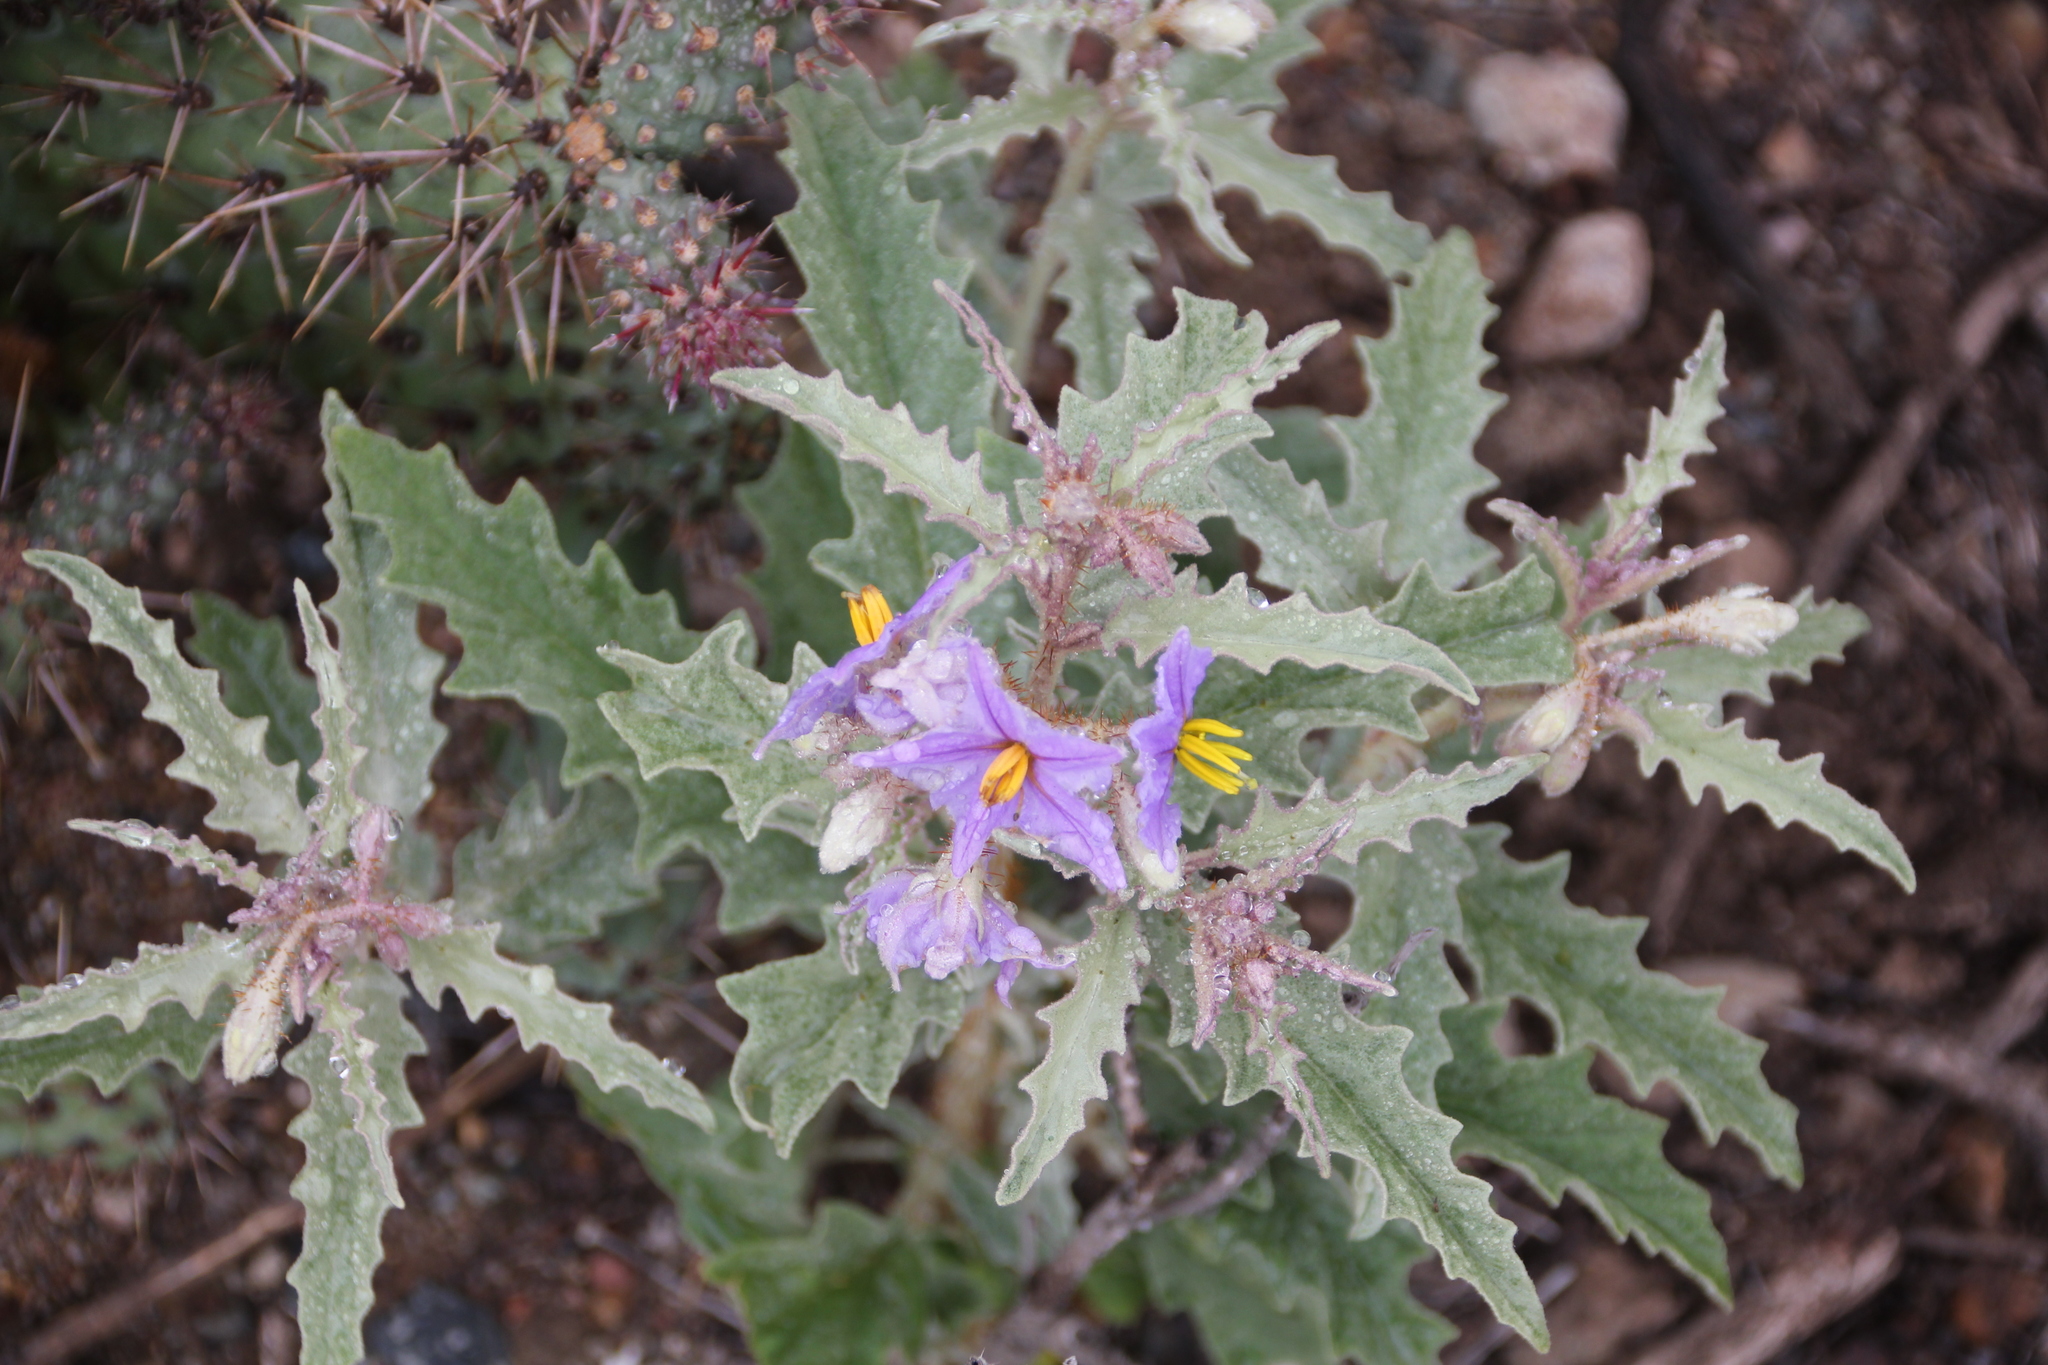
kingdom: Plantae
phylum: Tracheophyta
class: Magnoliopsida
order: Solanales
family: Solanaceae
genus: Solanum
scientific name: Solanum elaeagnifolium
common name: Silverleaf nightshade
